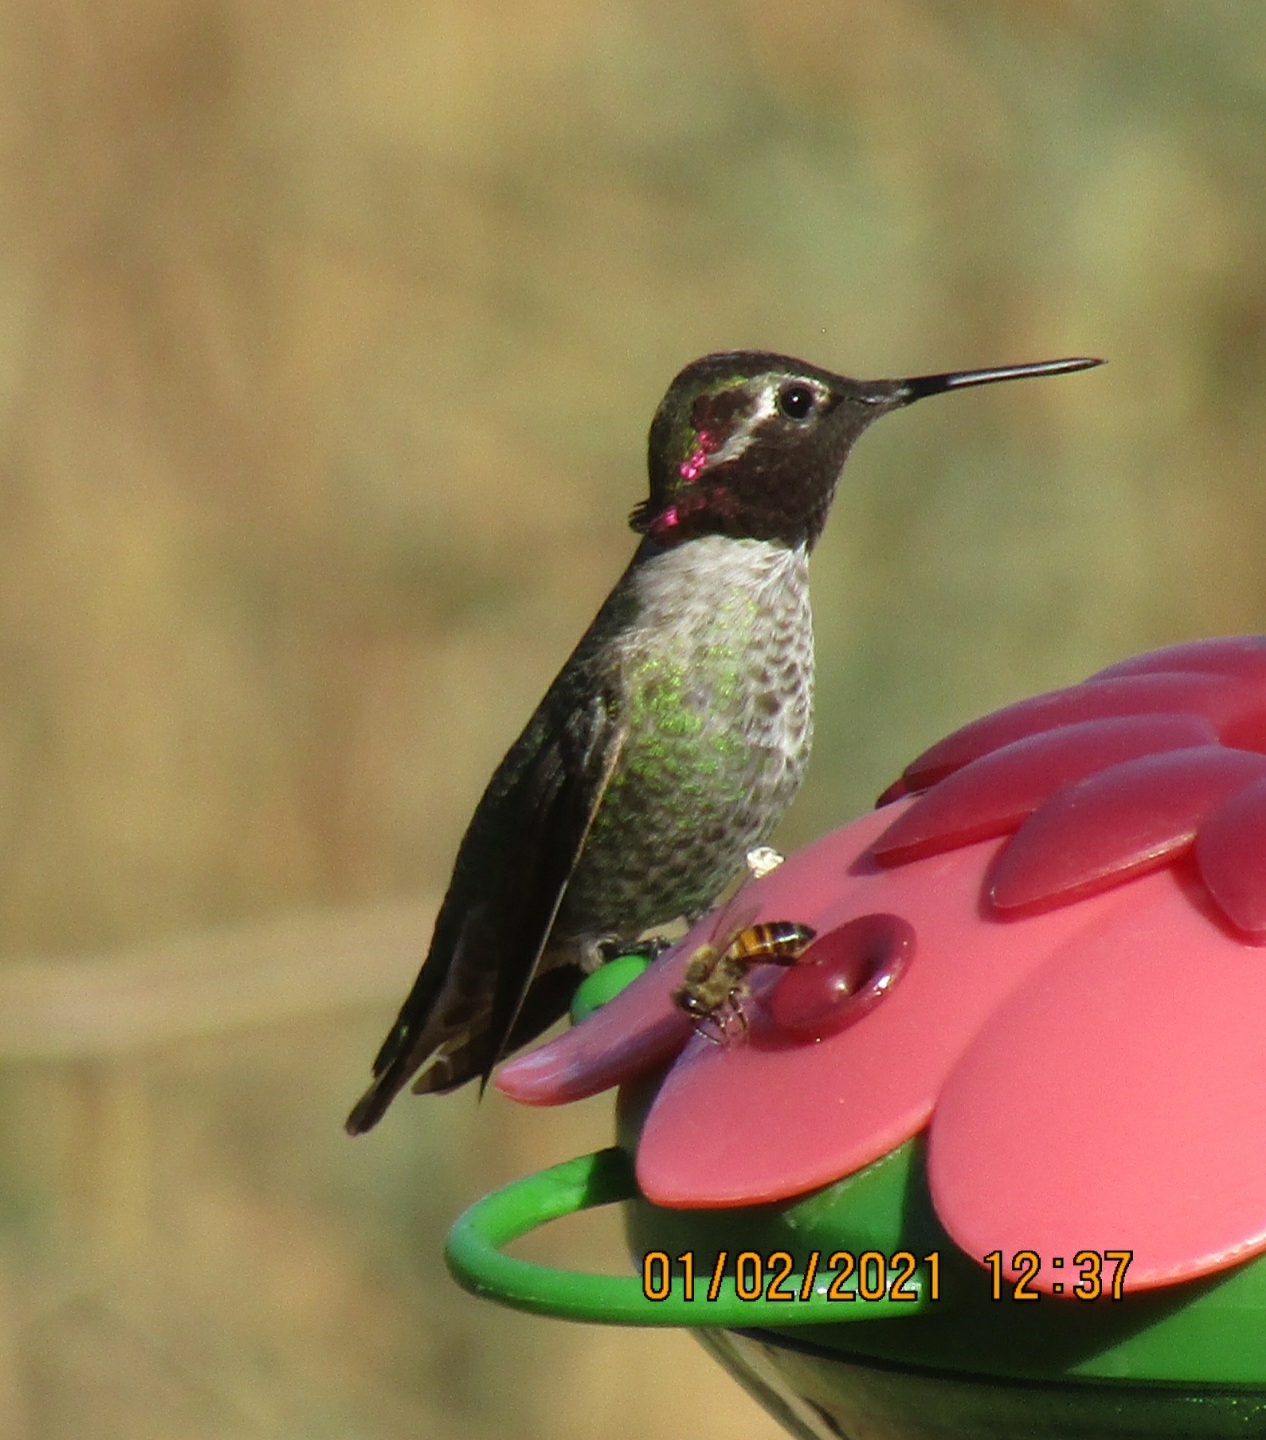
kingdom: Animalia
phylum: Chordata
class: Aves
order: Apodiformes
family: Trochilidae
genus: Calypte
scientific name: Calypte anna
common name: Anna's hummingbird
